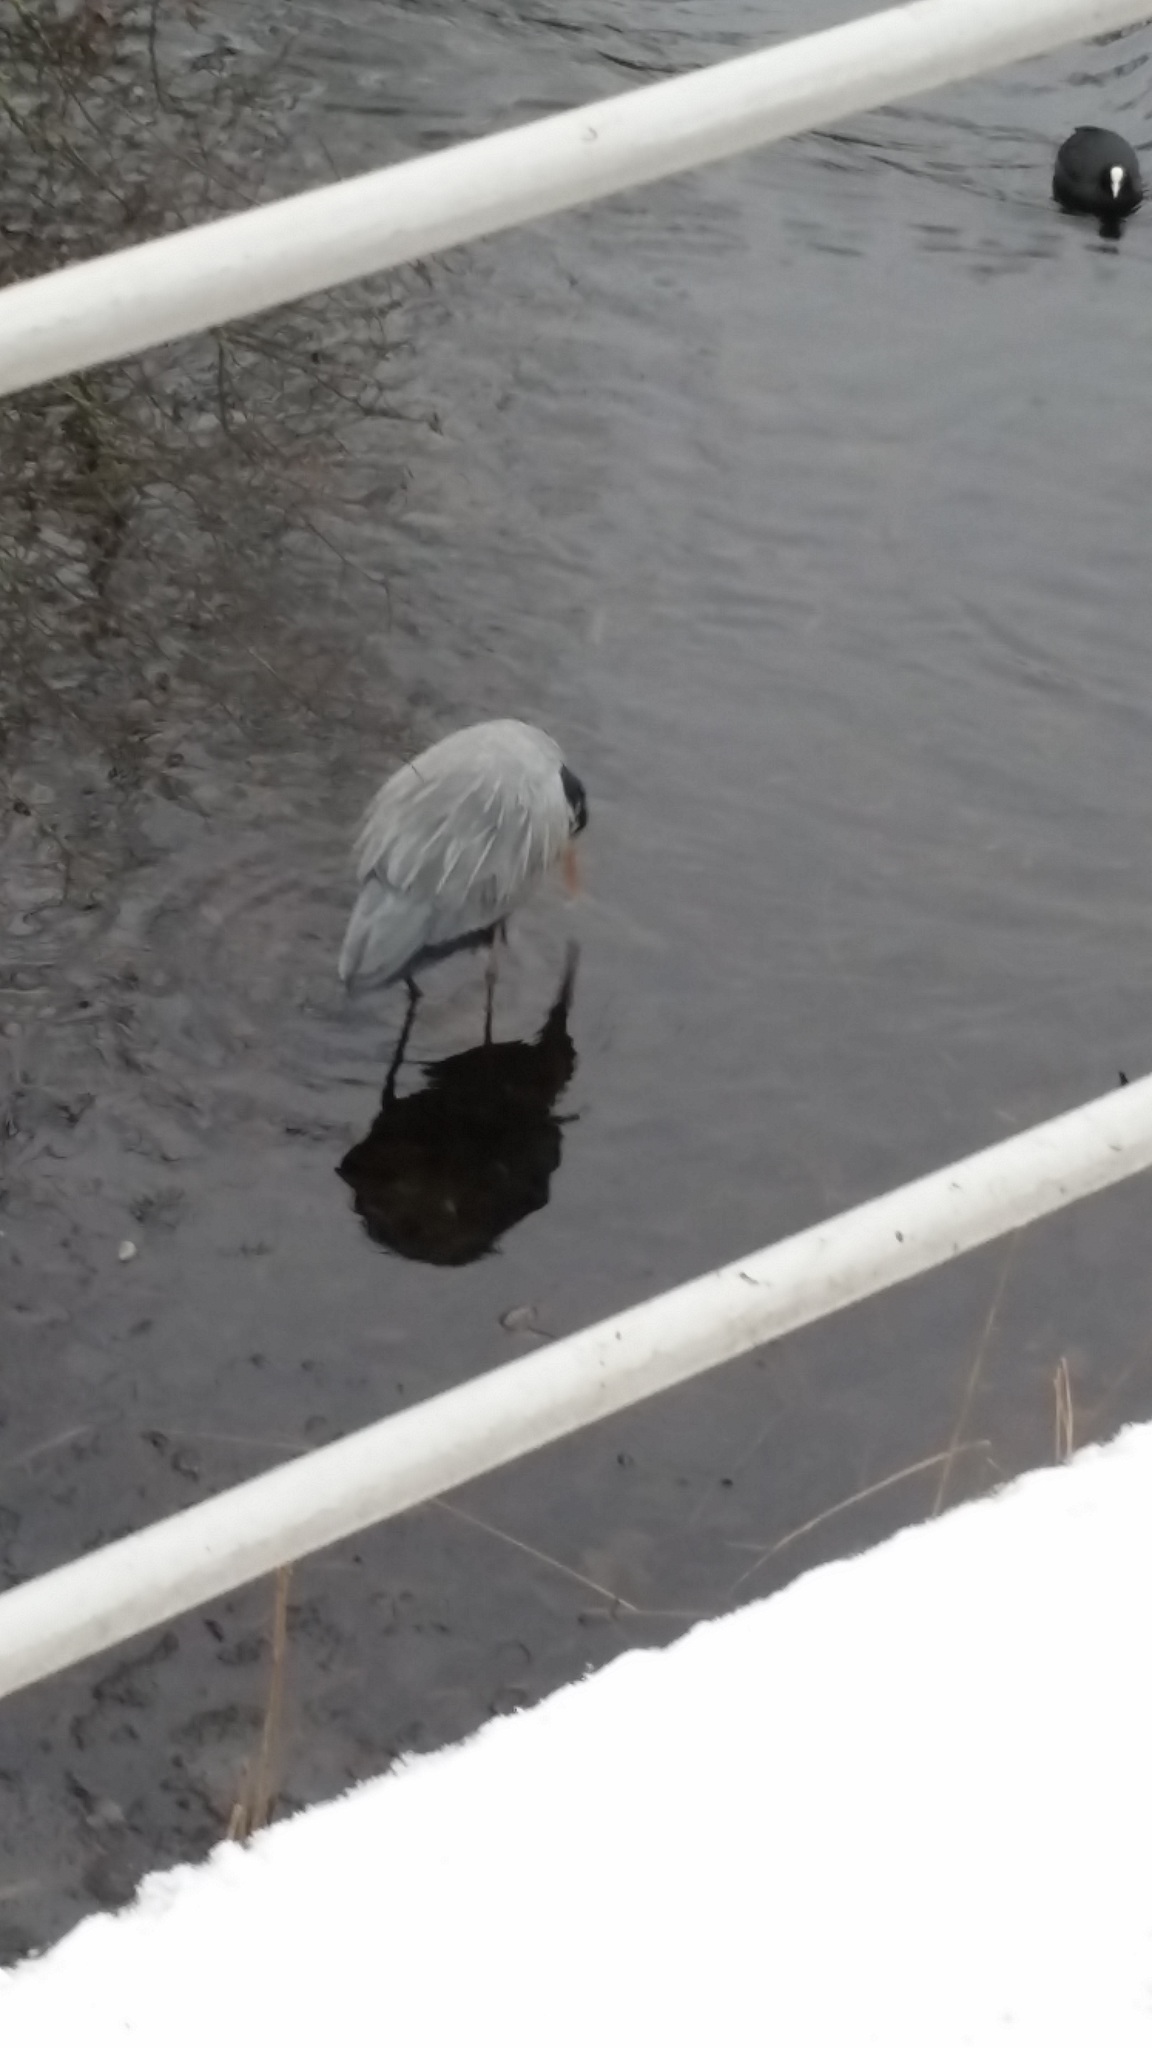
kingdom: Animalia
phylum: Chordata
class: Aves
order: Pelecaniformes
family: Ardeidae
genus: Ardea
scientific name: Ardea cinerea
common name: Grey heron
